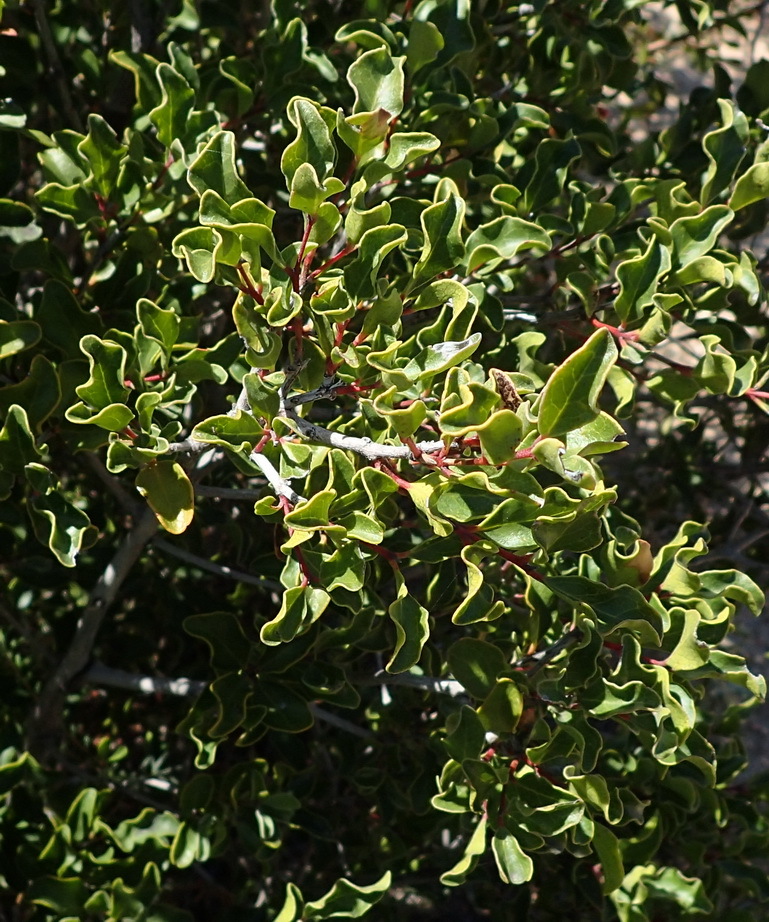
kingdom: Plantae
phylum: Tracheophyta
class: Magnoliopsida
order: Ericales
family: Ebenaceae
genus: Euclea
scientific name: Euclea undulata
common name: Small-leaved guarri
